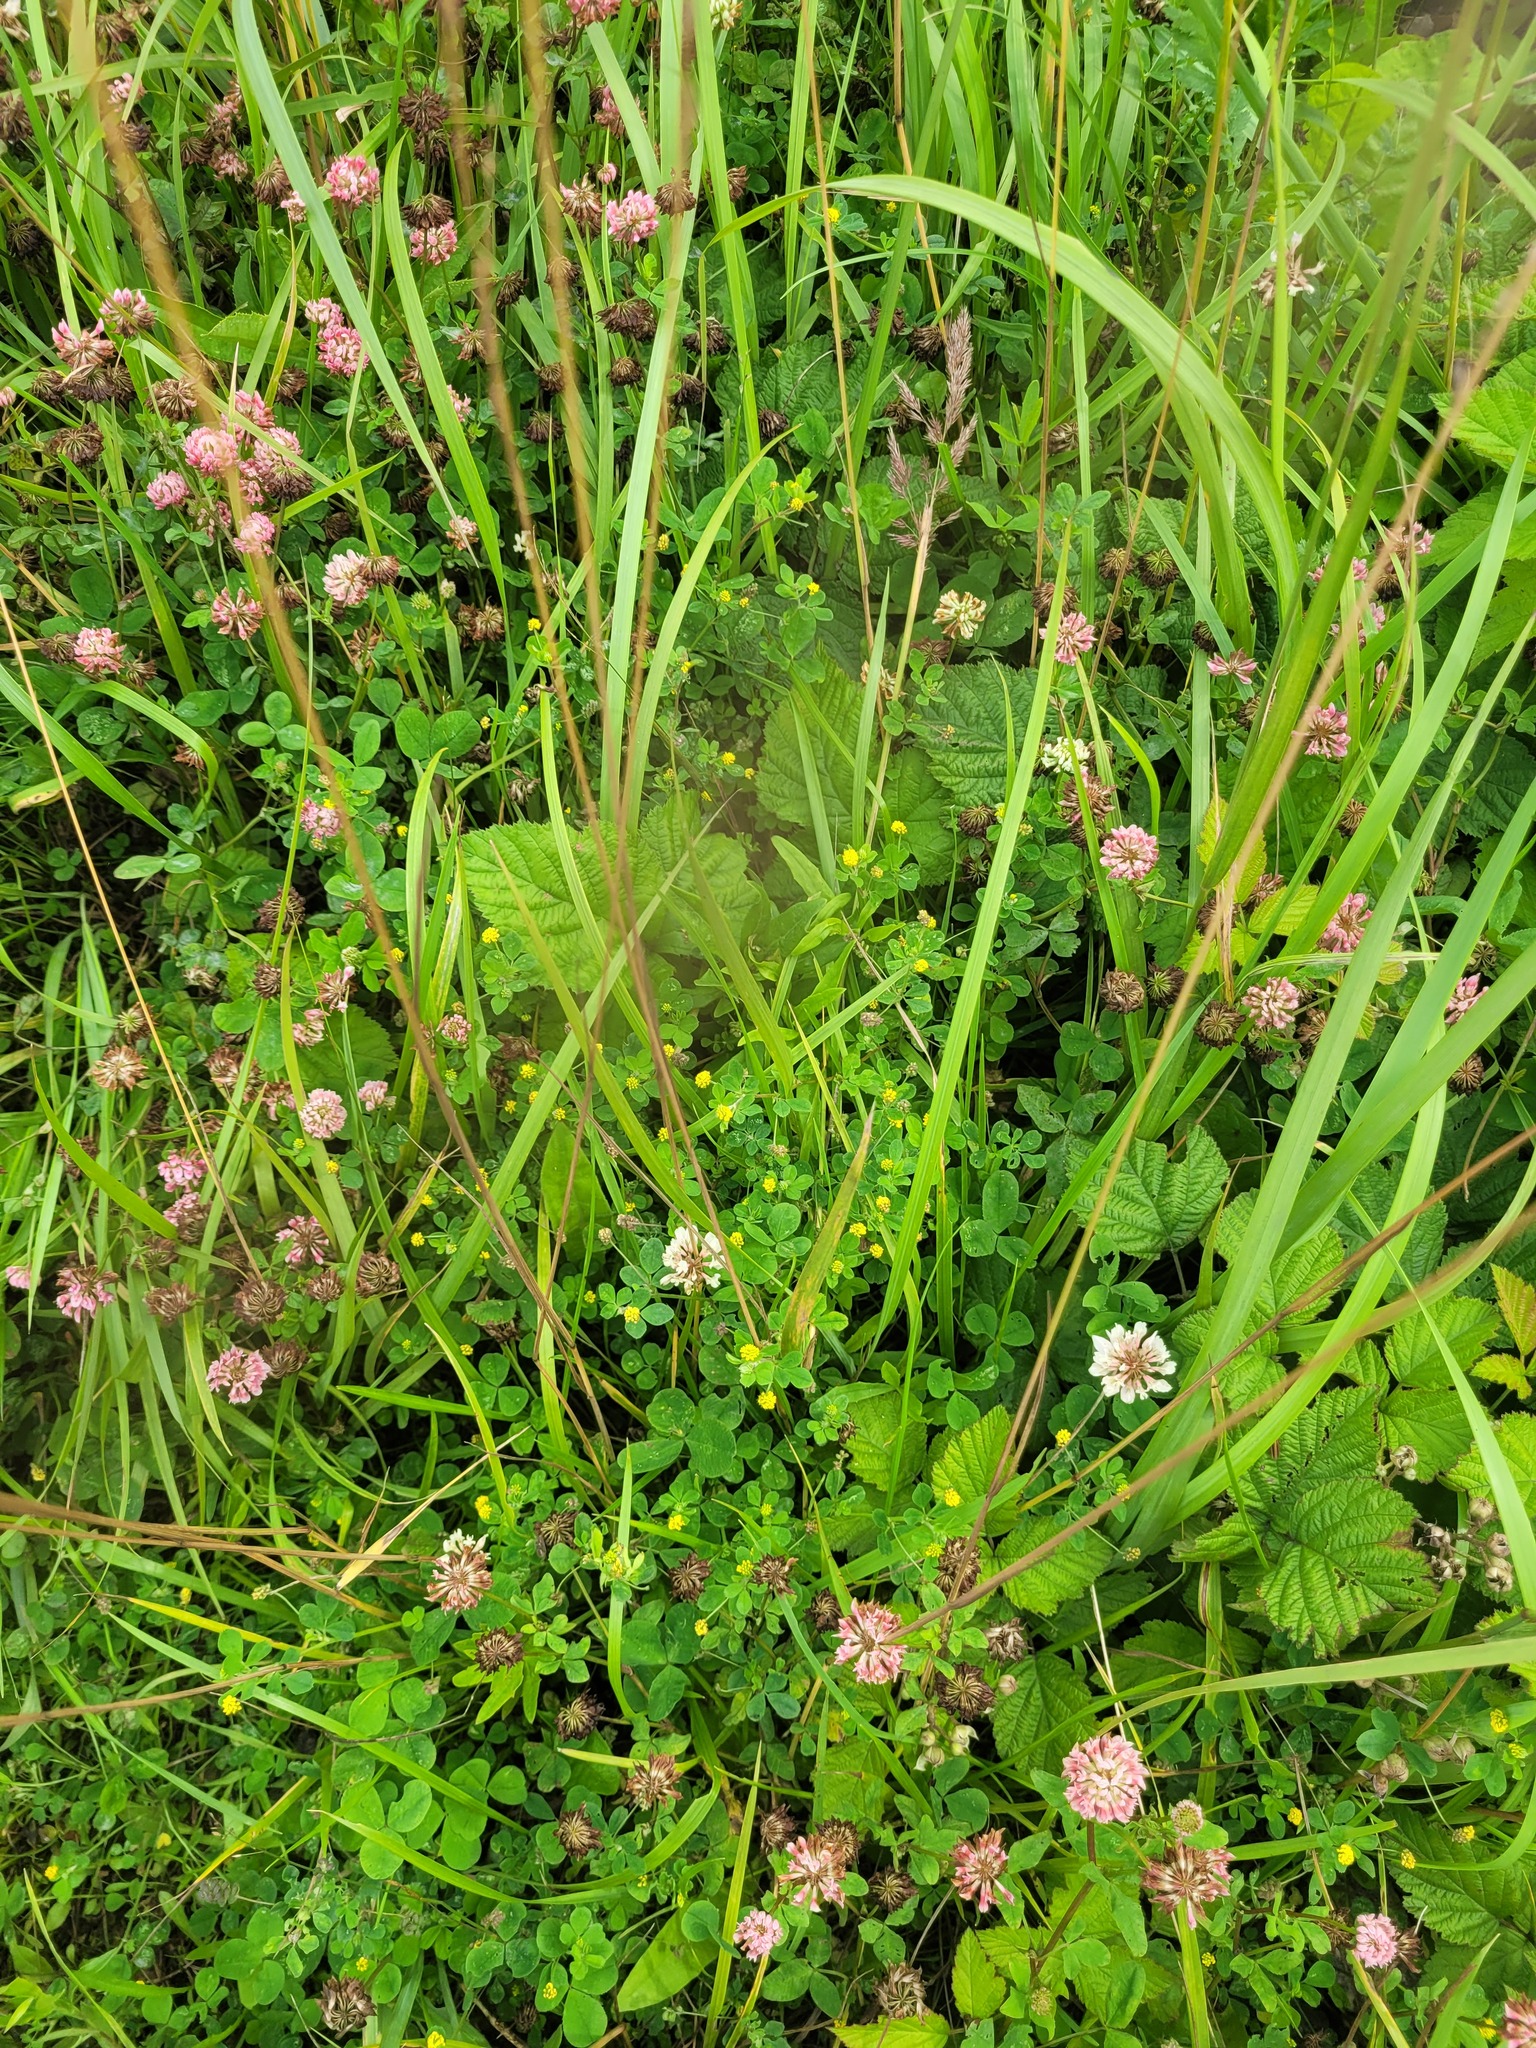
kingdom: Plantae
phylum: Tracheophyta
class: Magnoliopsida
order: Fabales
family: Fabaceae
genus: Medicago
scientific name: Medicago lupulina
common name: Black medick
